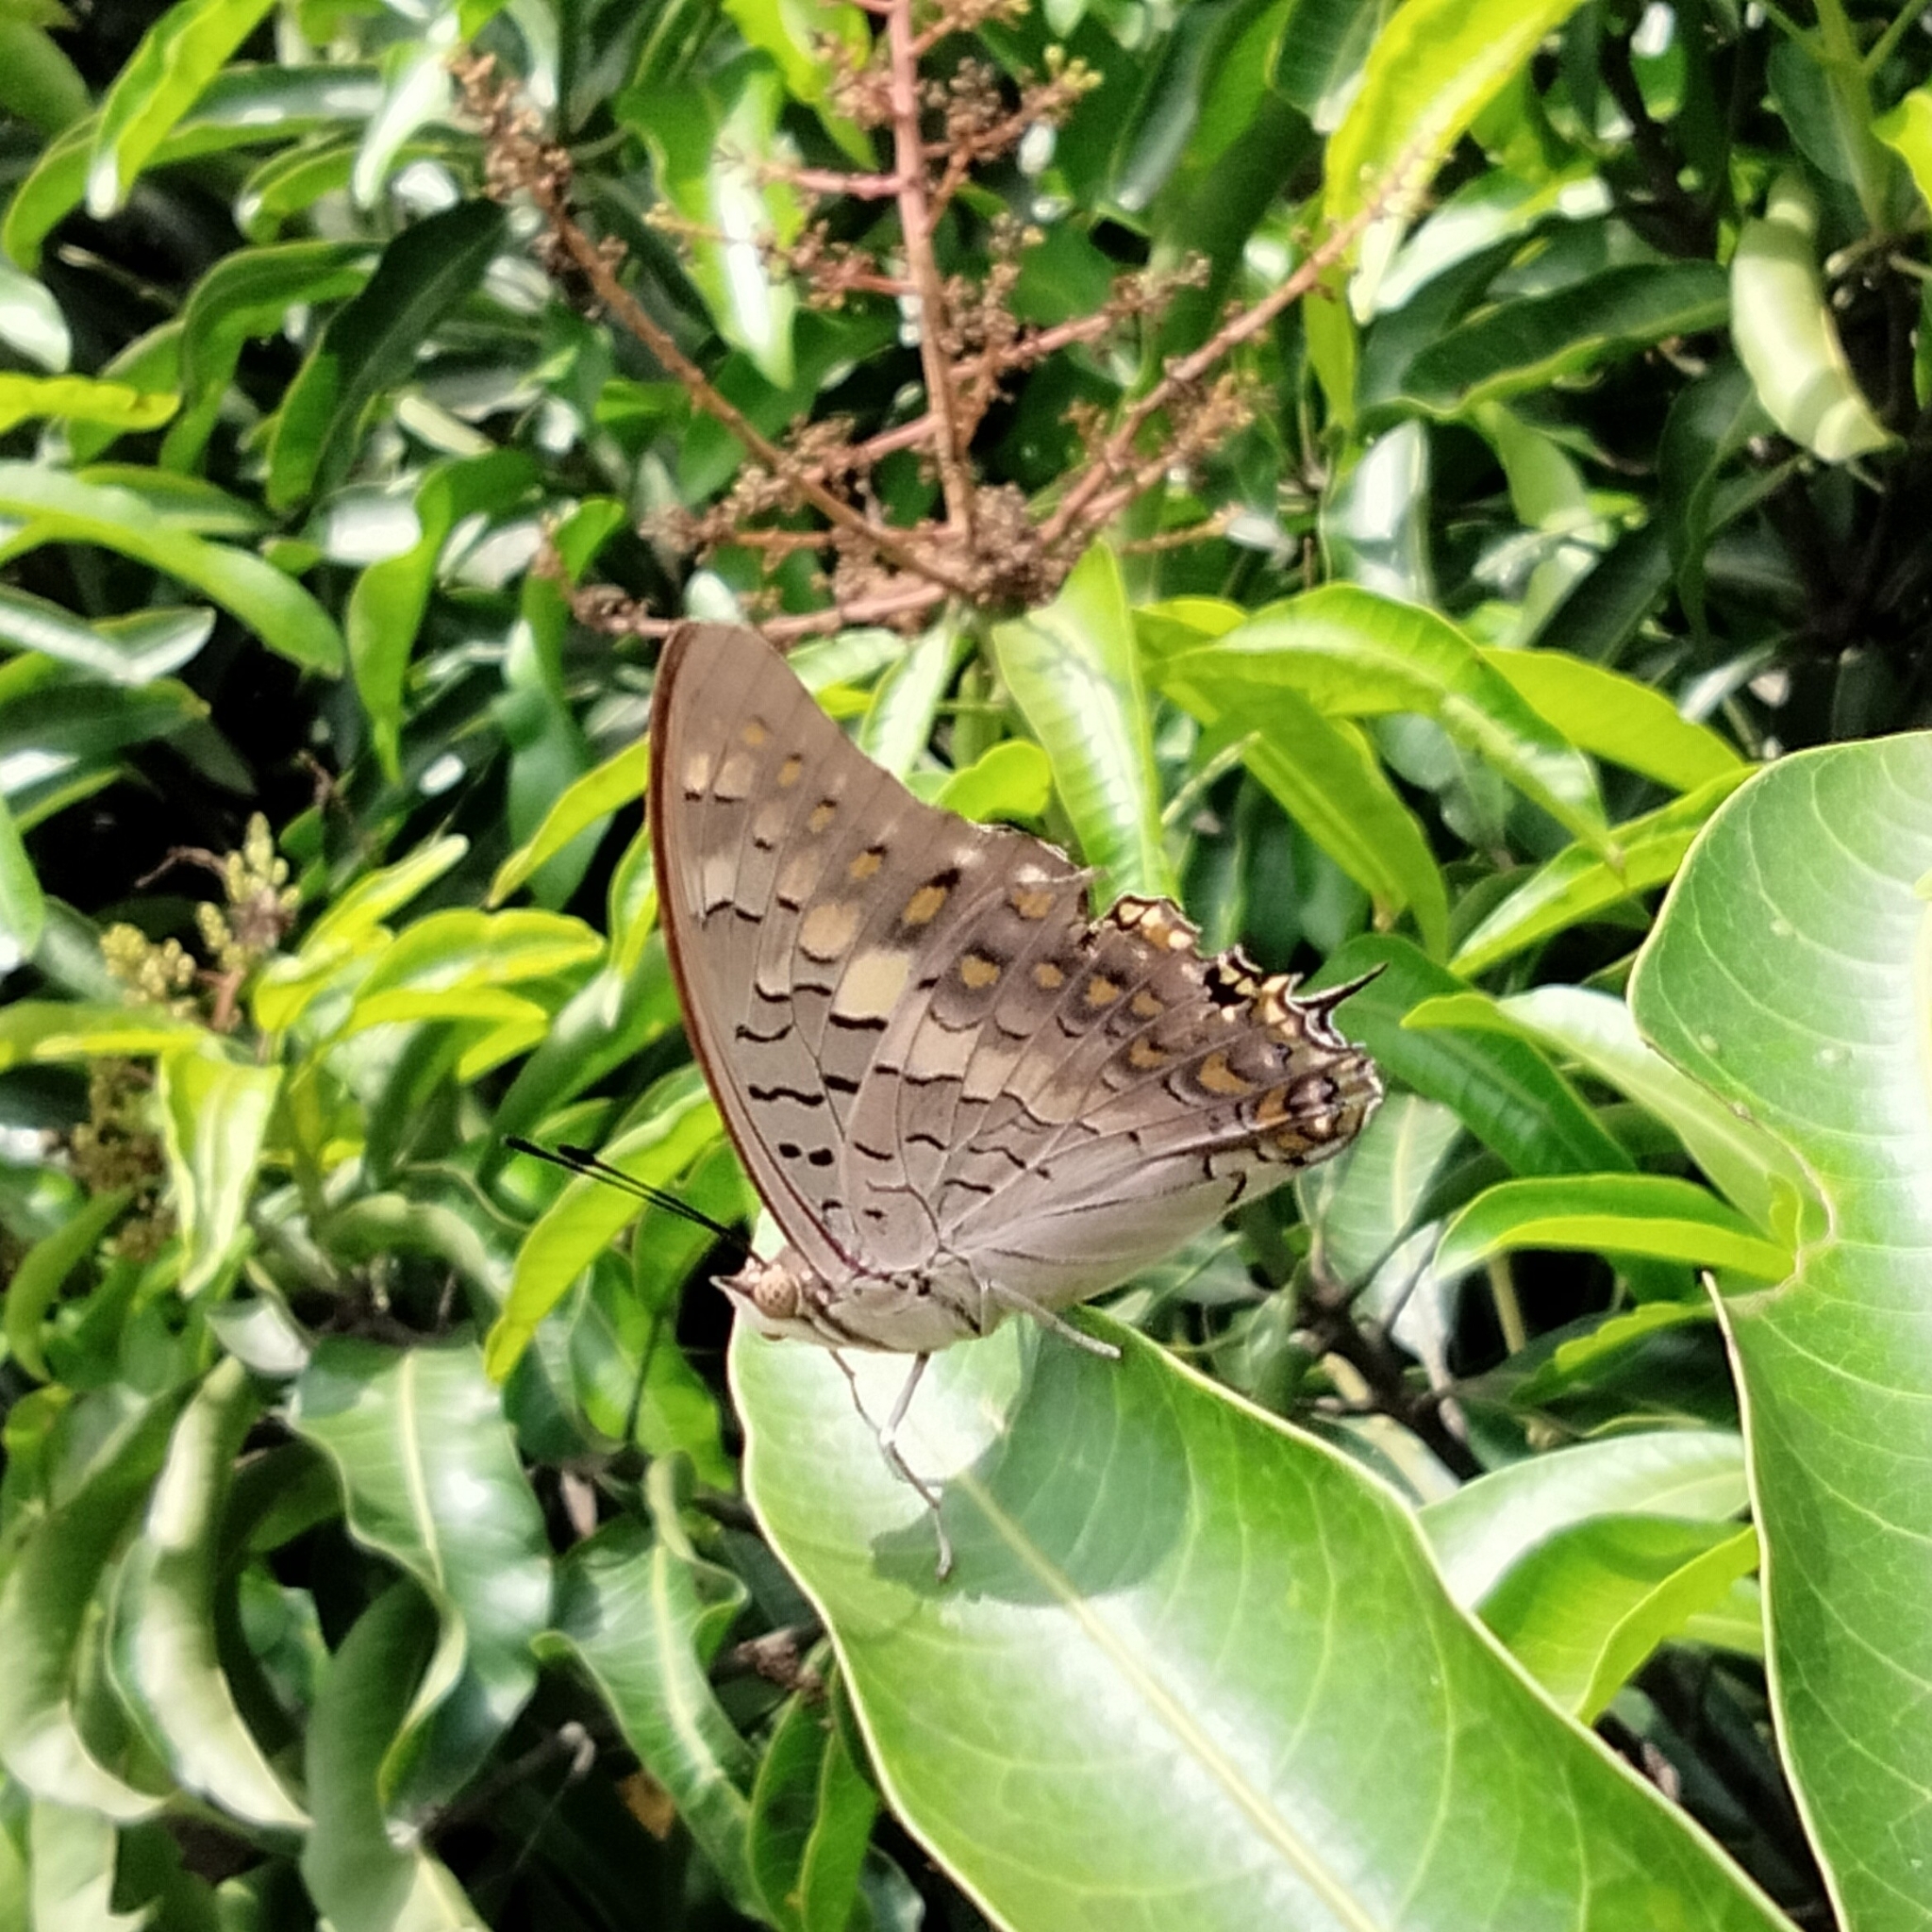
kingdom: Animalia
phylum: Arthropoda
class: Insecta
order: Lepidoptera
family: Nymphalidae
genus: Charaxes
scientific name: Charaxes solon
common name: Black rajah
